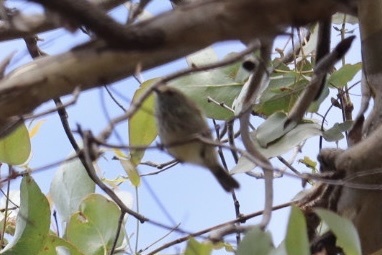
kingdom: Animalia
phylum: Chordata
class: Aves
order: Passeriformes
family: Acanthizidae
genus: Acanthiza
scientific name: Acanthiza pusilla
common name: Brown thornbill
